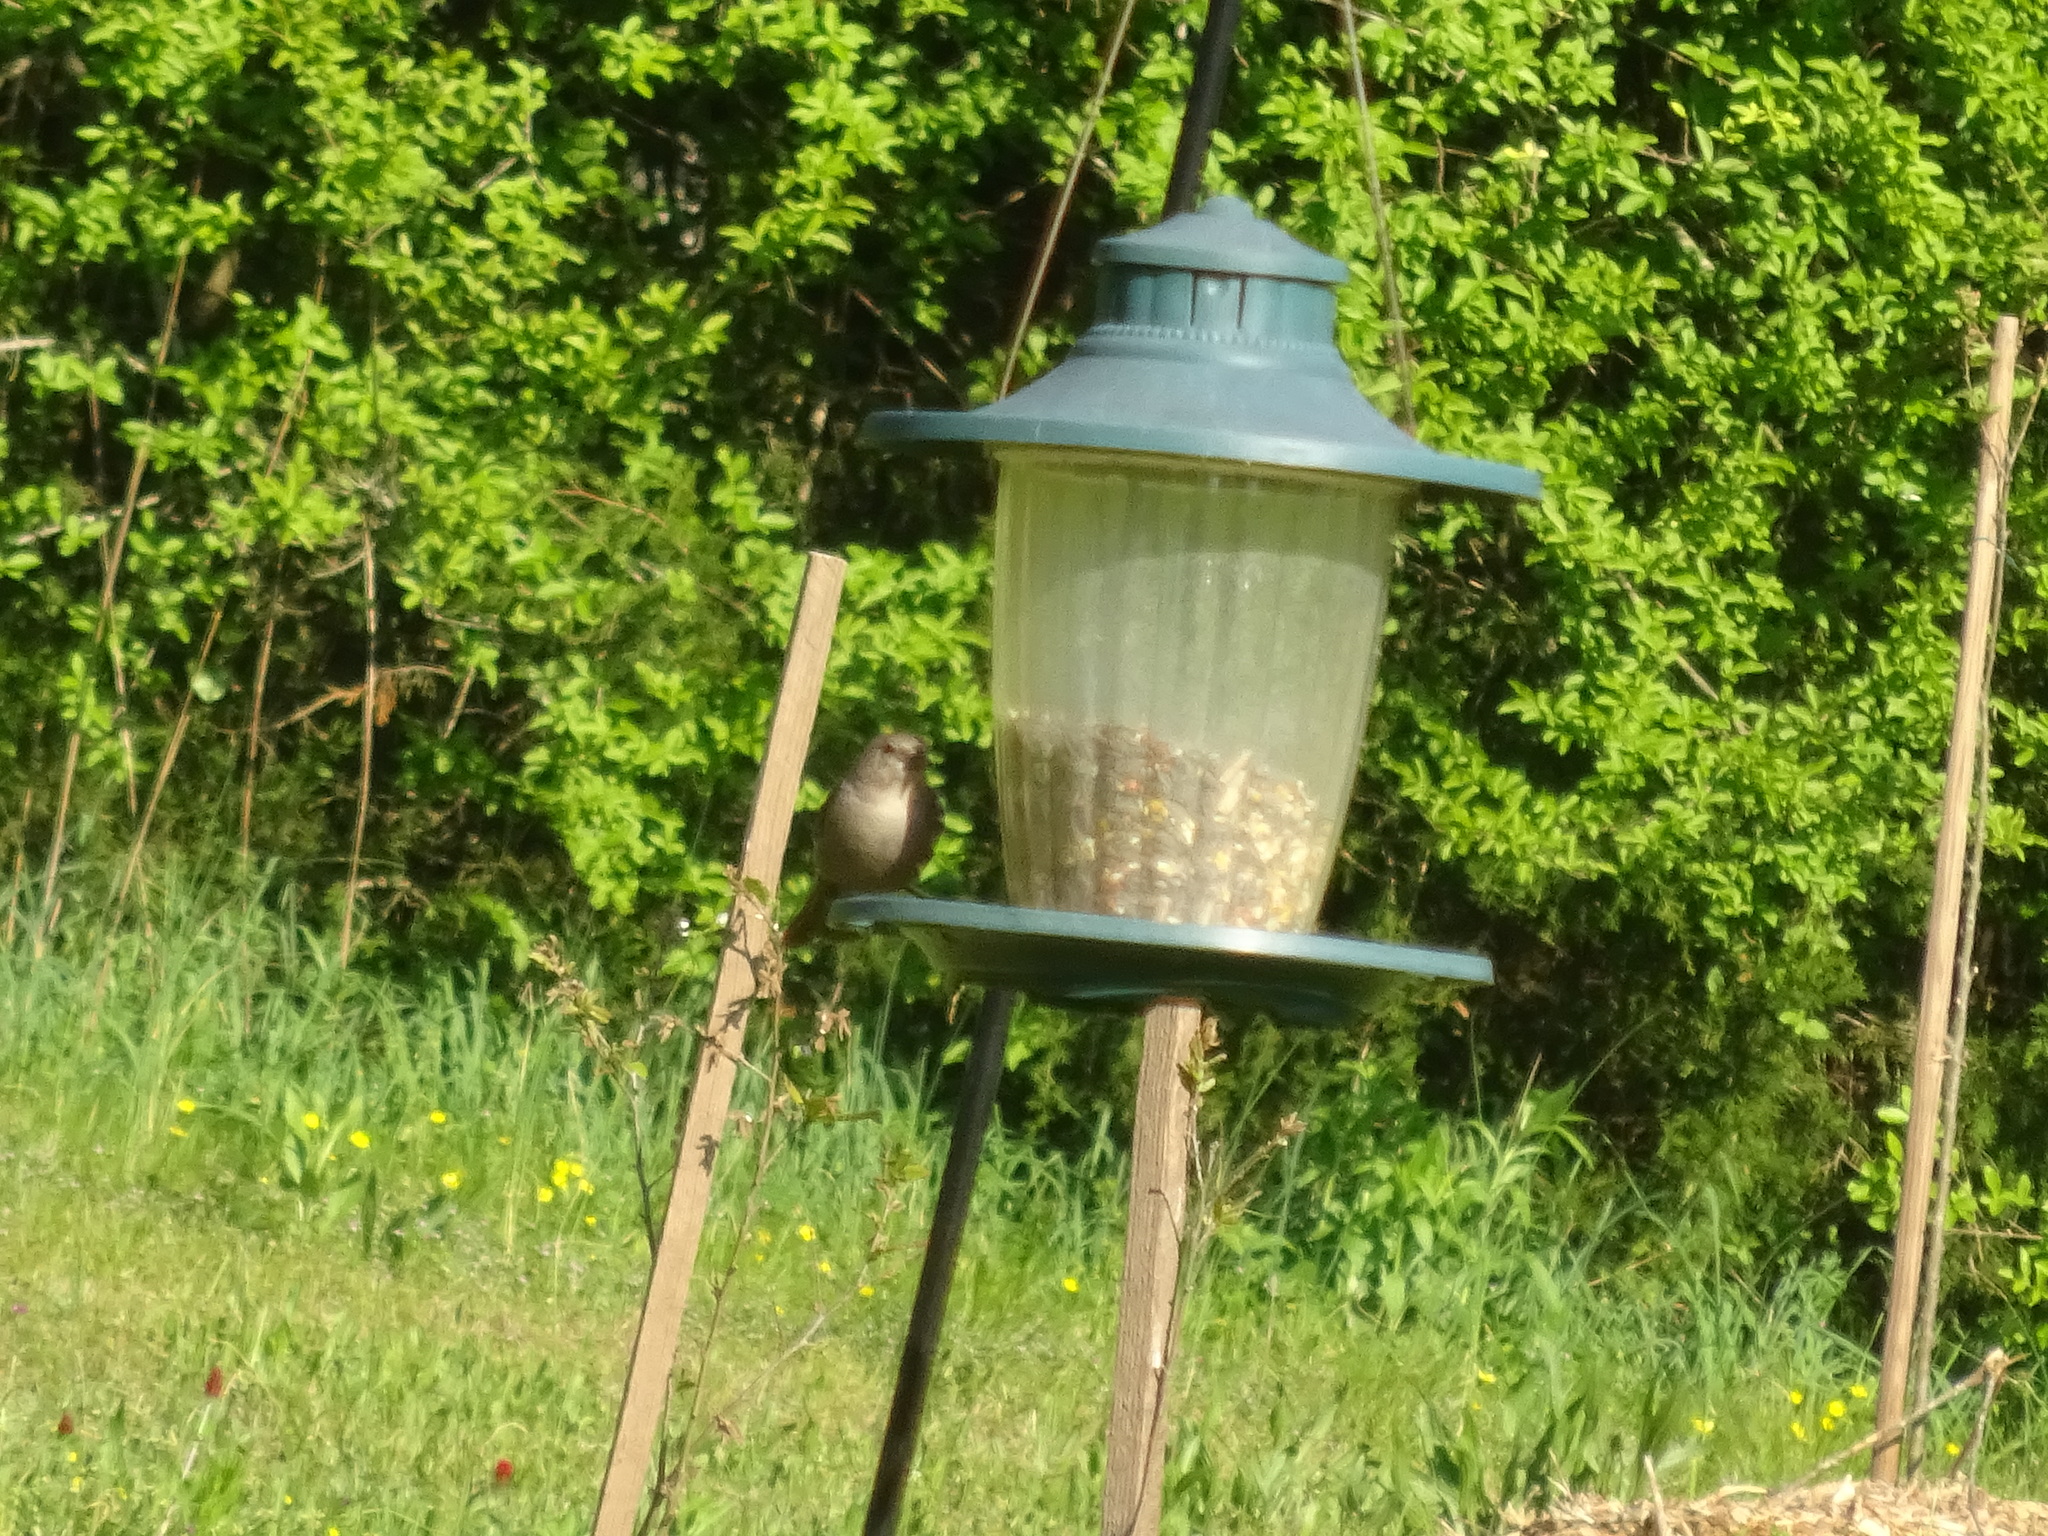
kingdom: Animalia
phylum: Chordata
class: Aves
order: Passeriformes
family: Icteridae
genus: Molothrus
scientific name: Molothrus ater
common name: Brown-headed cowbird
